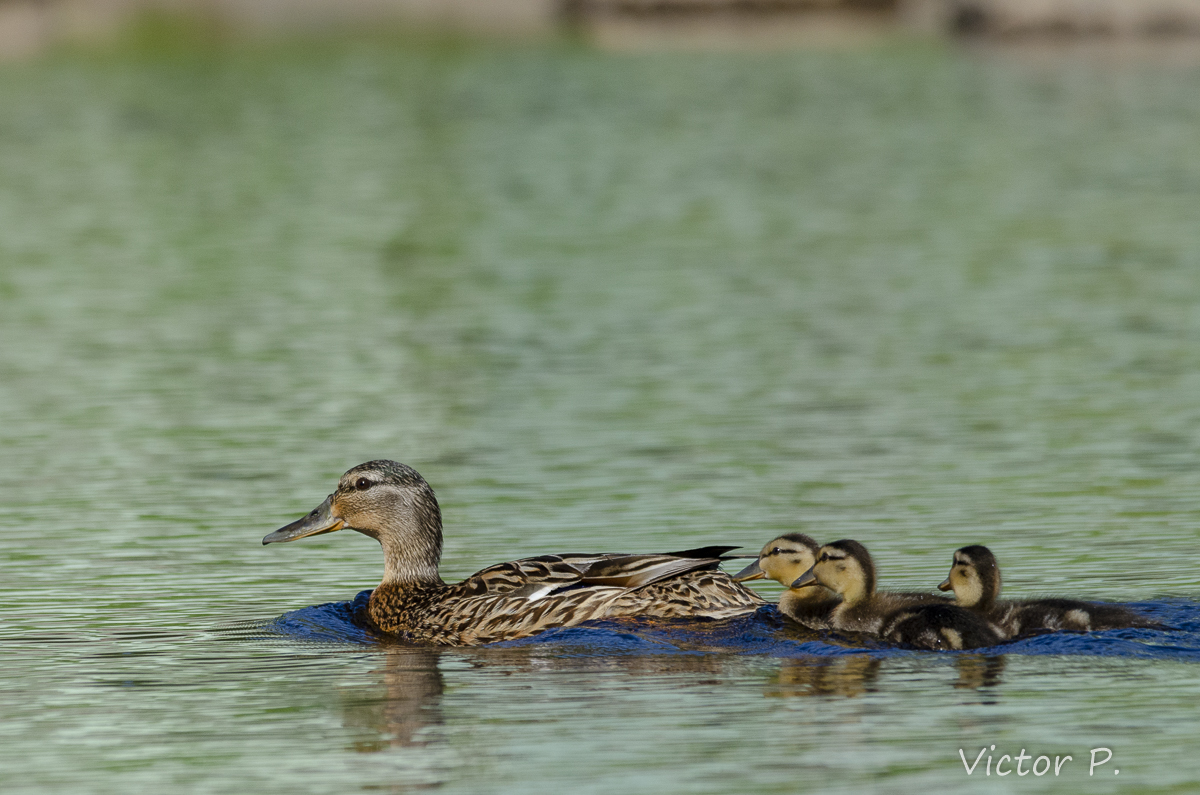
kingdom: Animalia
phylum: Chordata
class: Aves
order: Anseriformes
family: Anatidae
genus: Anas
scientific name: Anas platyrhynchos
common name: Mallard
